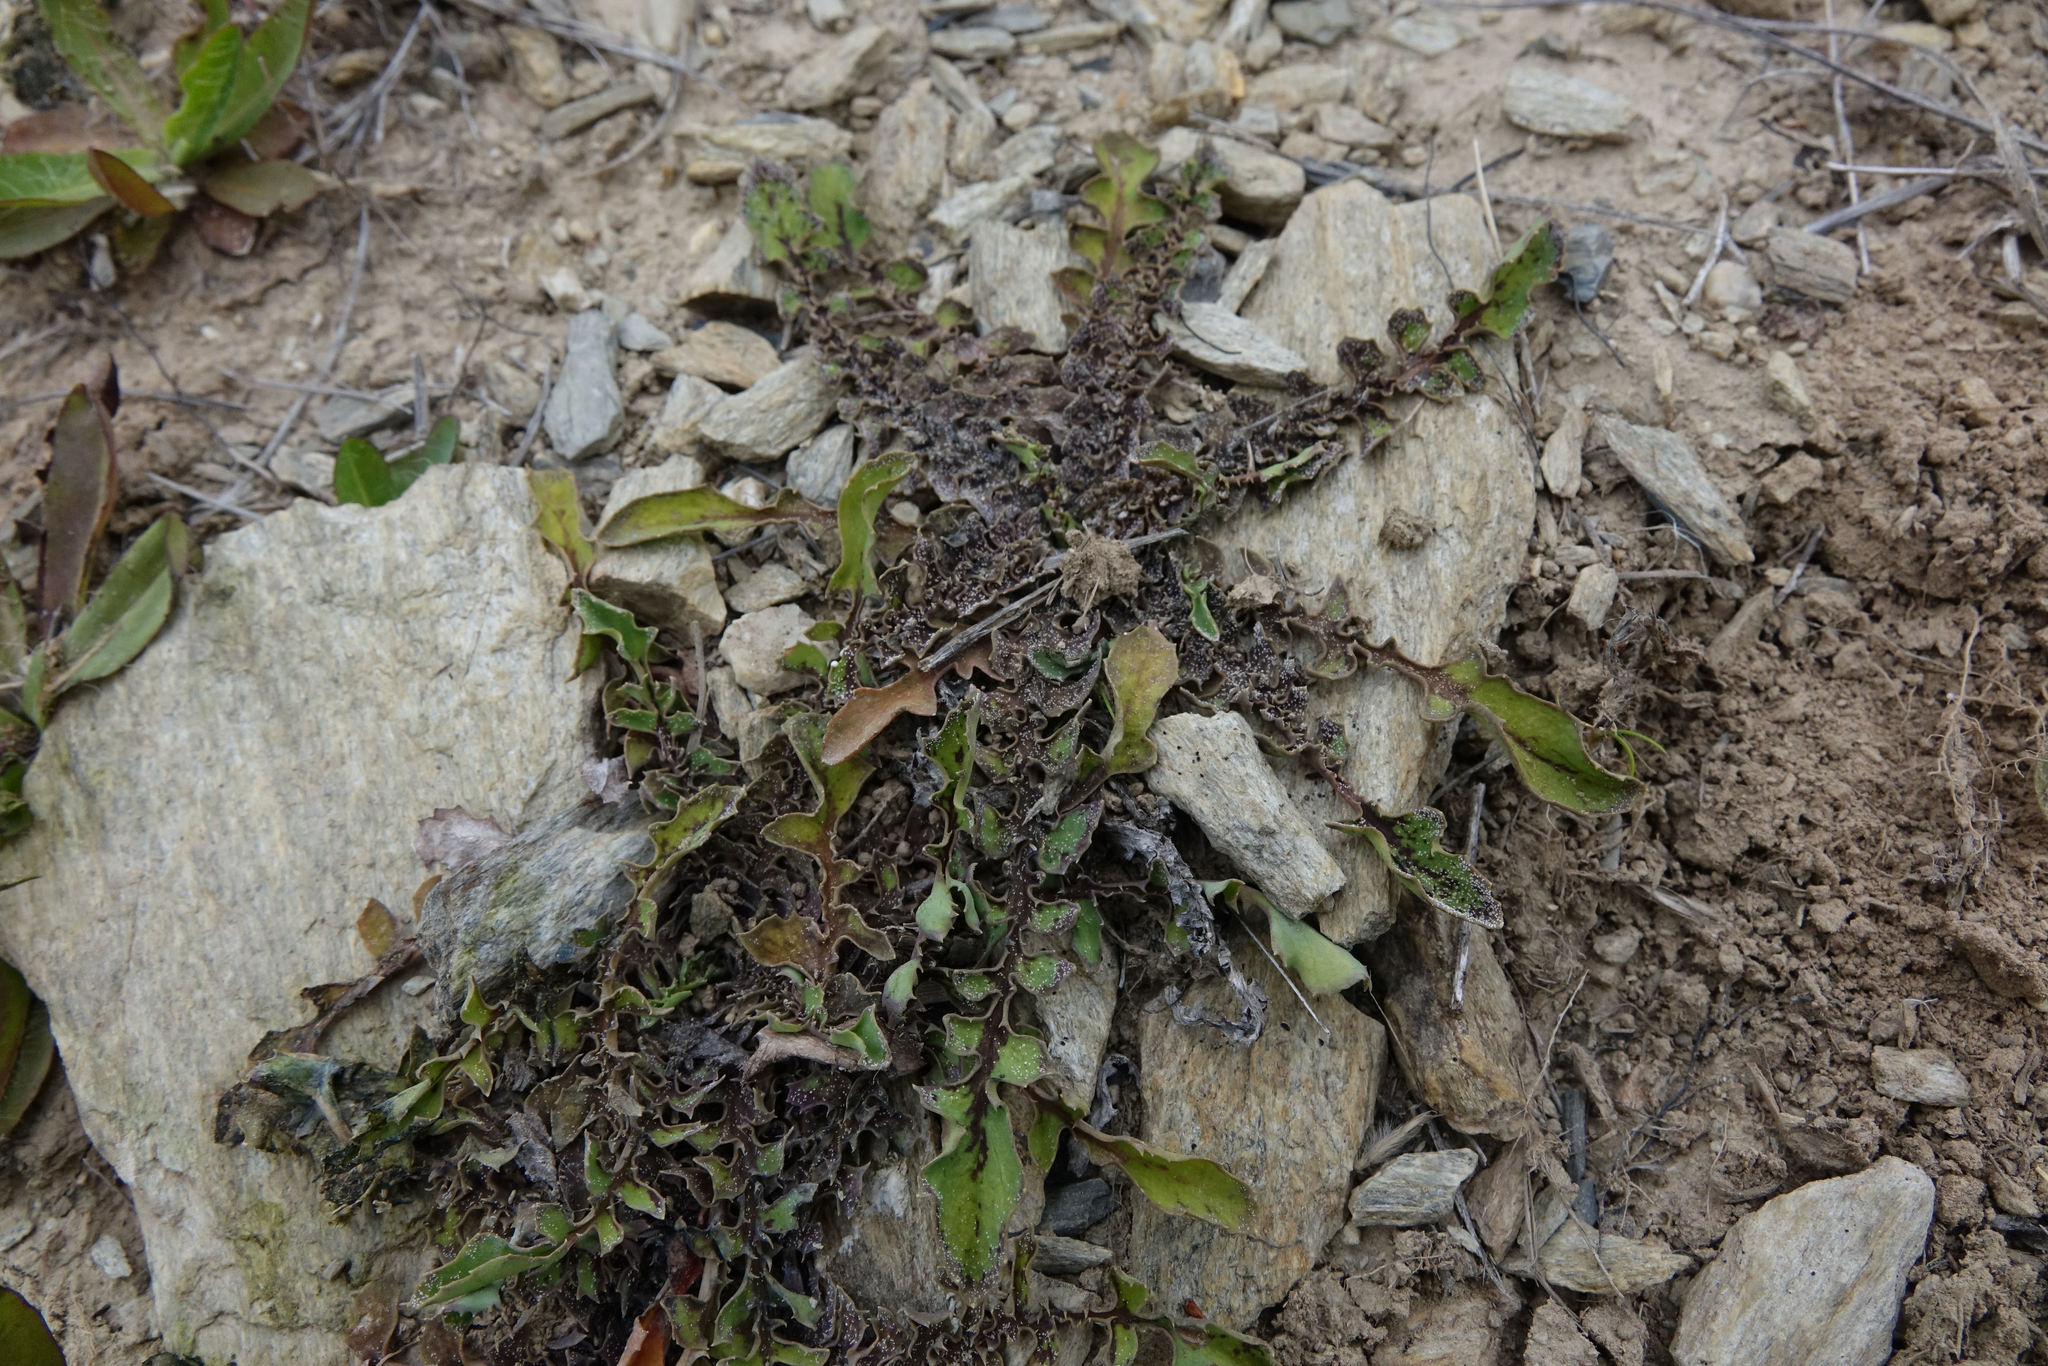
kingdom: Plantae
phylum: Tracheophyta
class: Magnoliopsida
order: Asterales
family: Asteraceae
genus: Sonchus
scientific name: Sonchus novae-zelandiae
